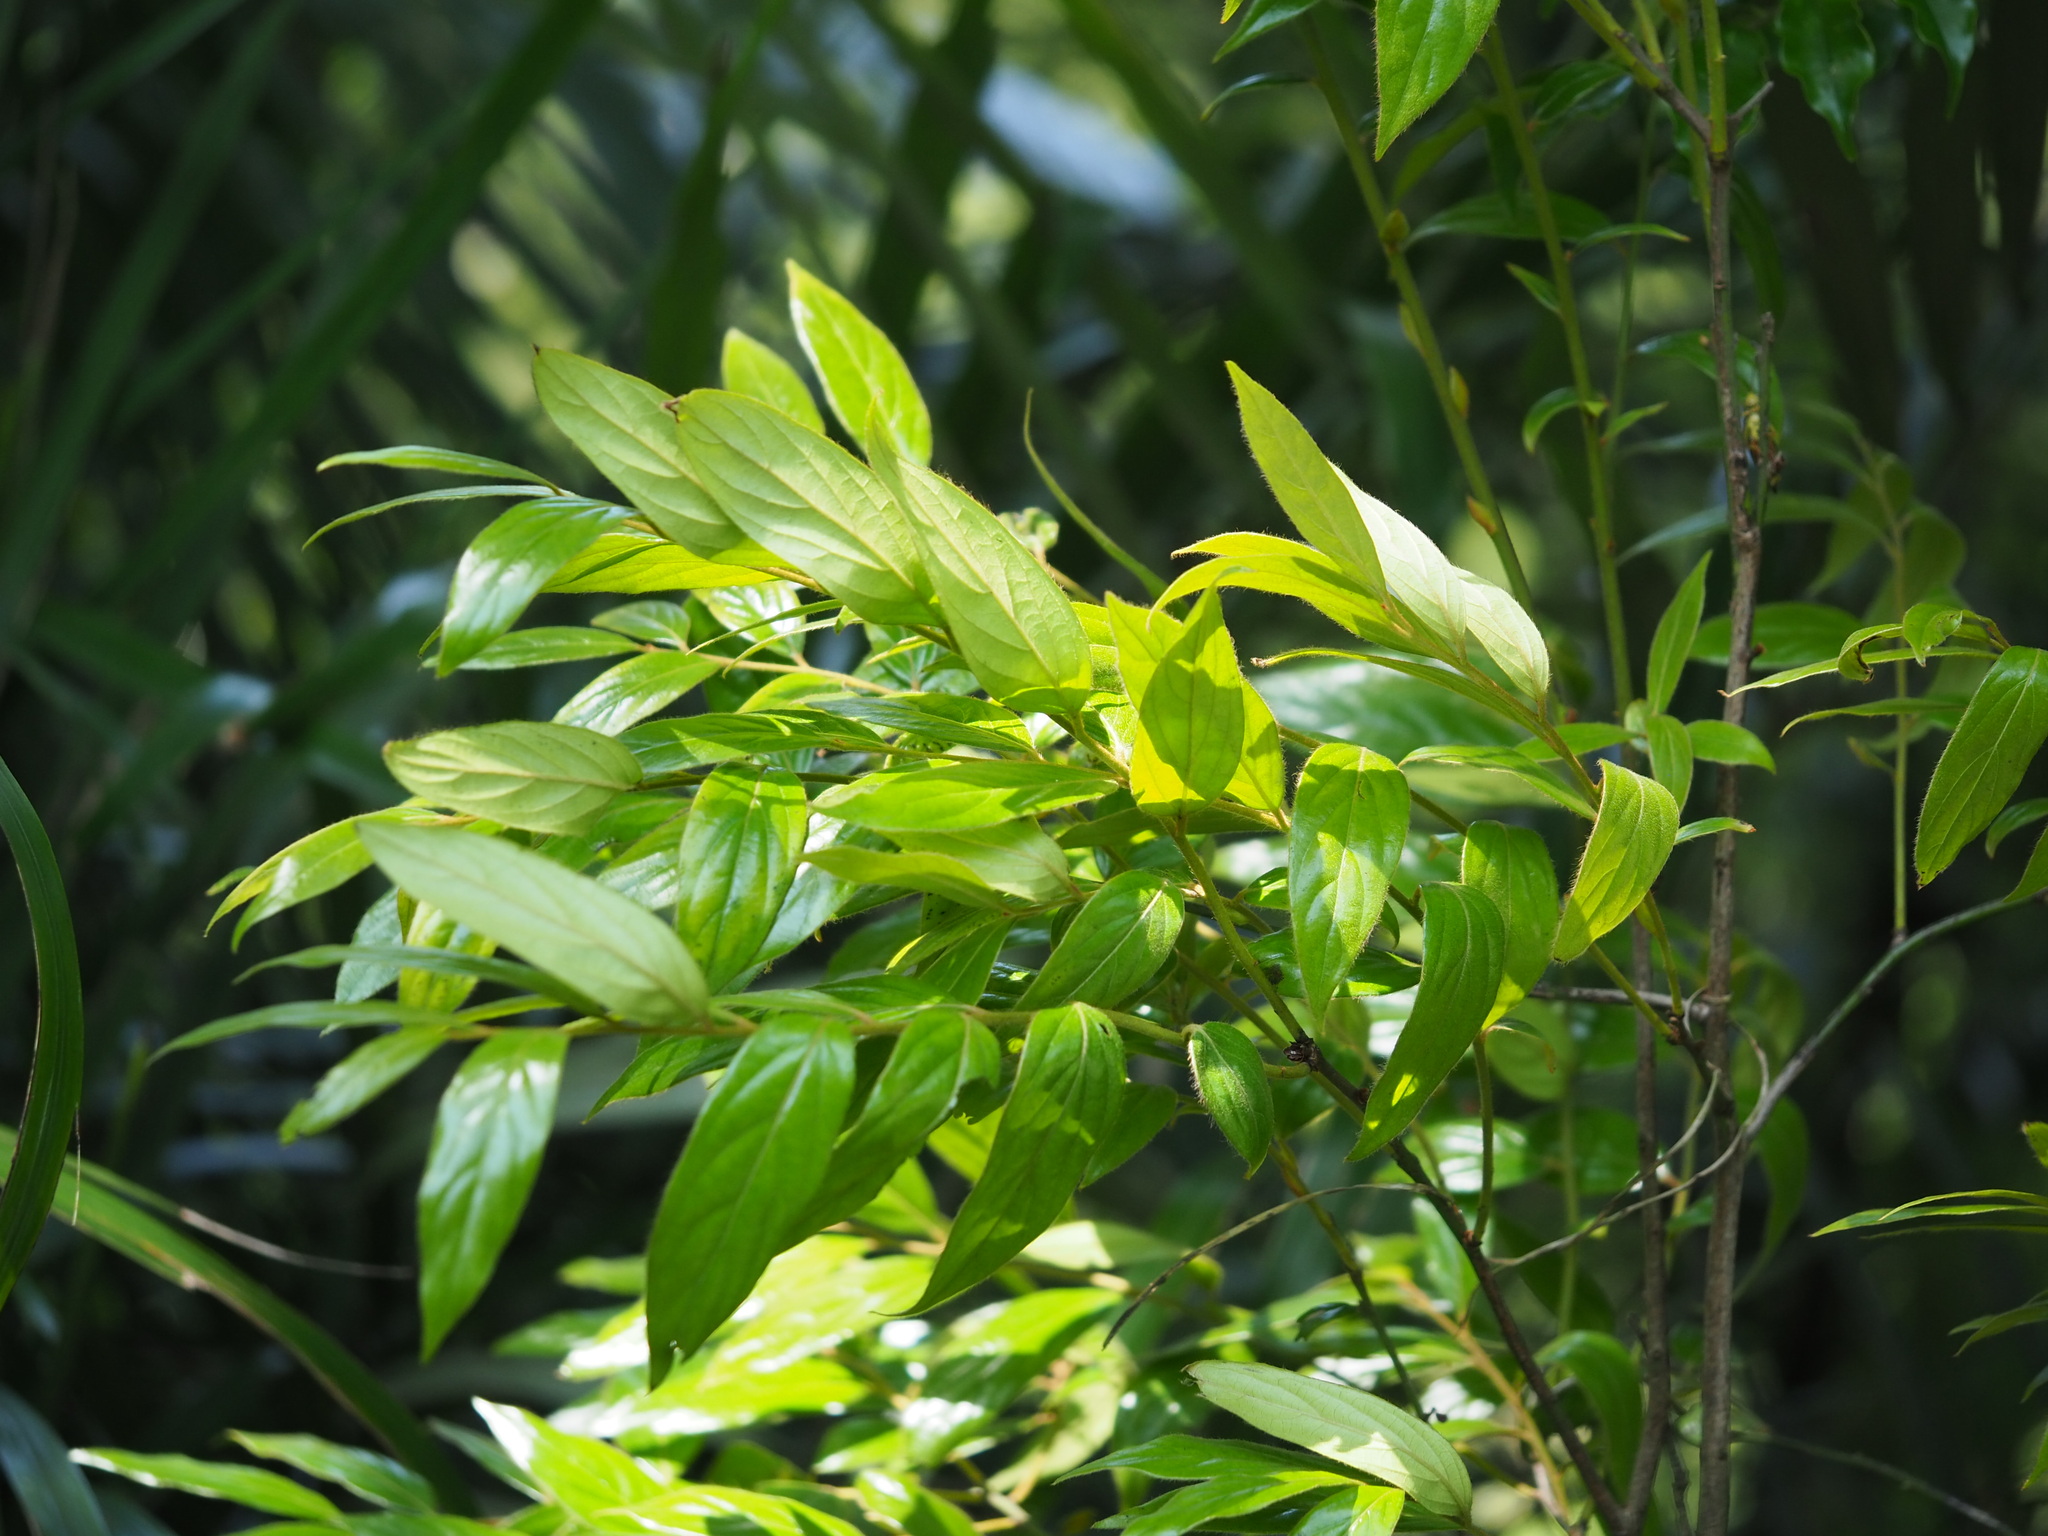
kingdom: Plantae
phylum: Tracheophyta
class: Magnoliopsida
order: Ericales
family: Ebenaceae
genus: Diospyros
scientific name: Diospyros eriantha
